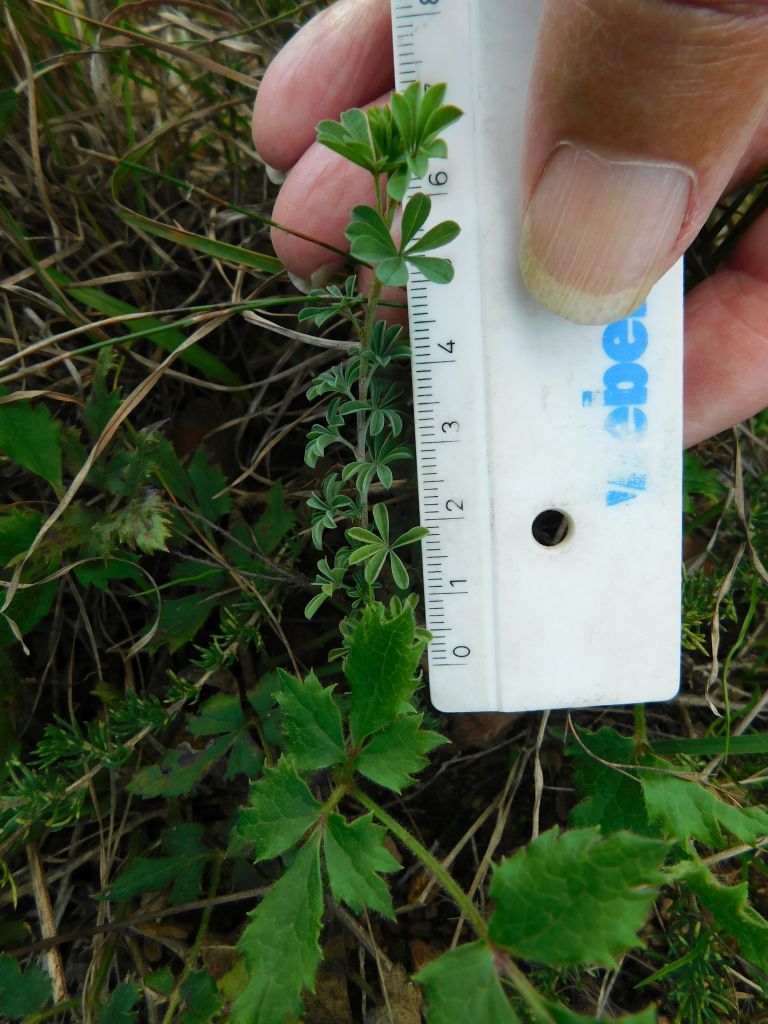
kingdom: Plantae
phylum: Tracheophyta
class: Magnoliopsida
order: Fabales
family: Fabaceae
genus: Indigofera
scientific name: Indigofera digitata
